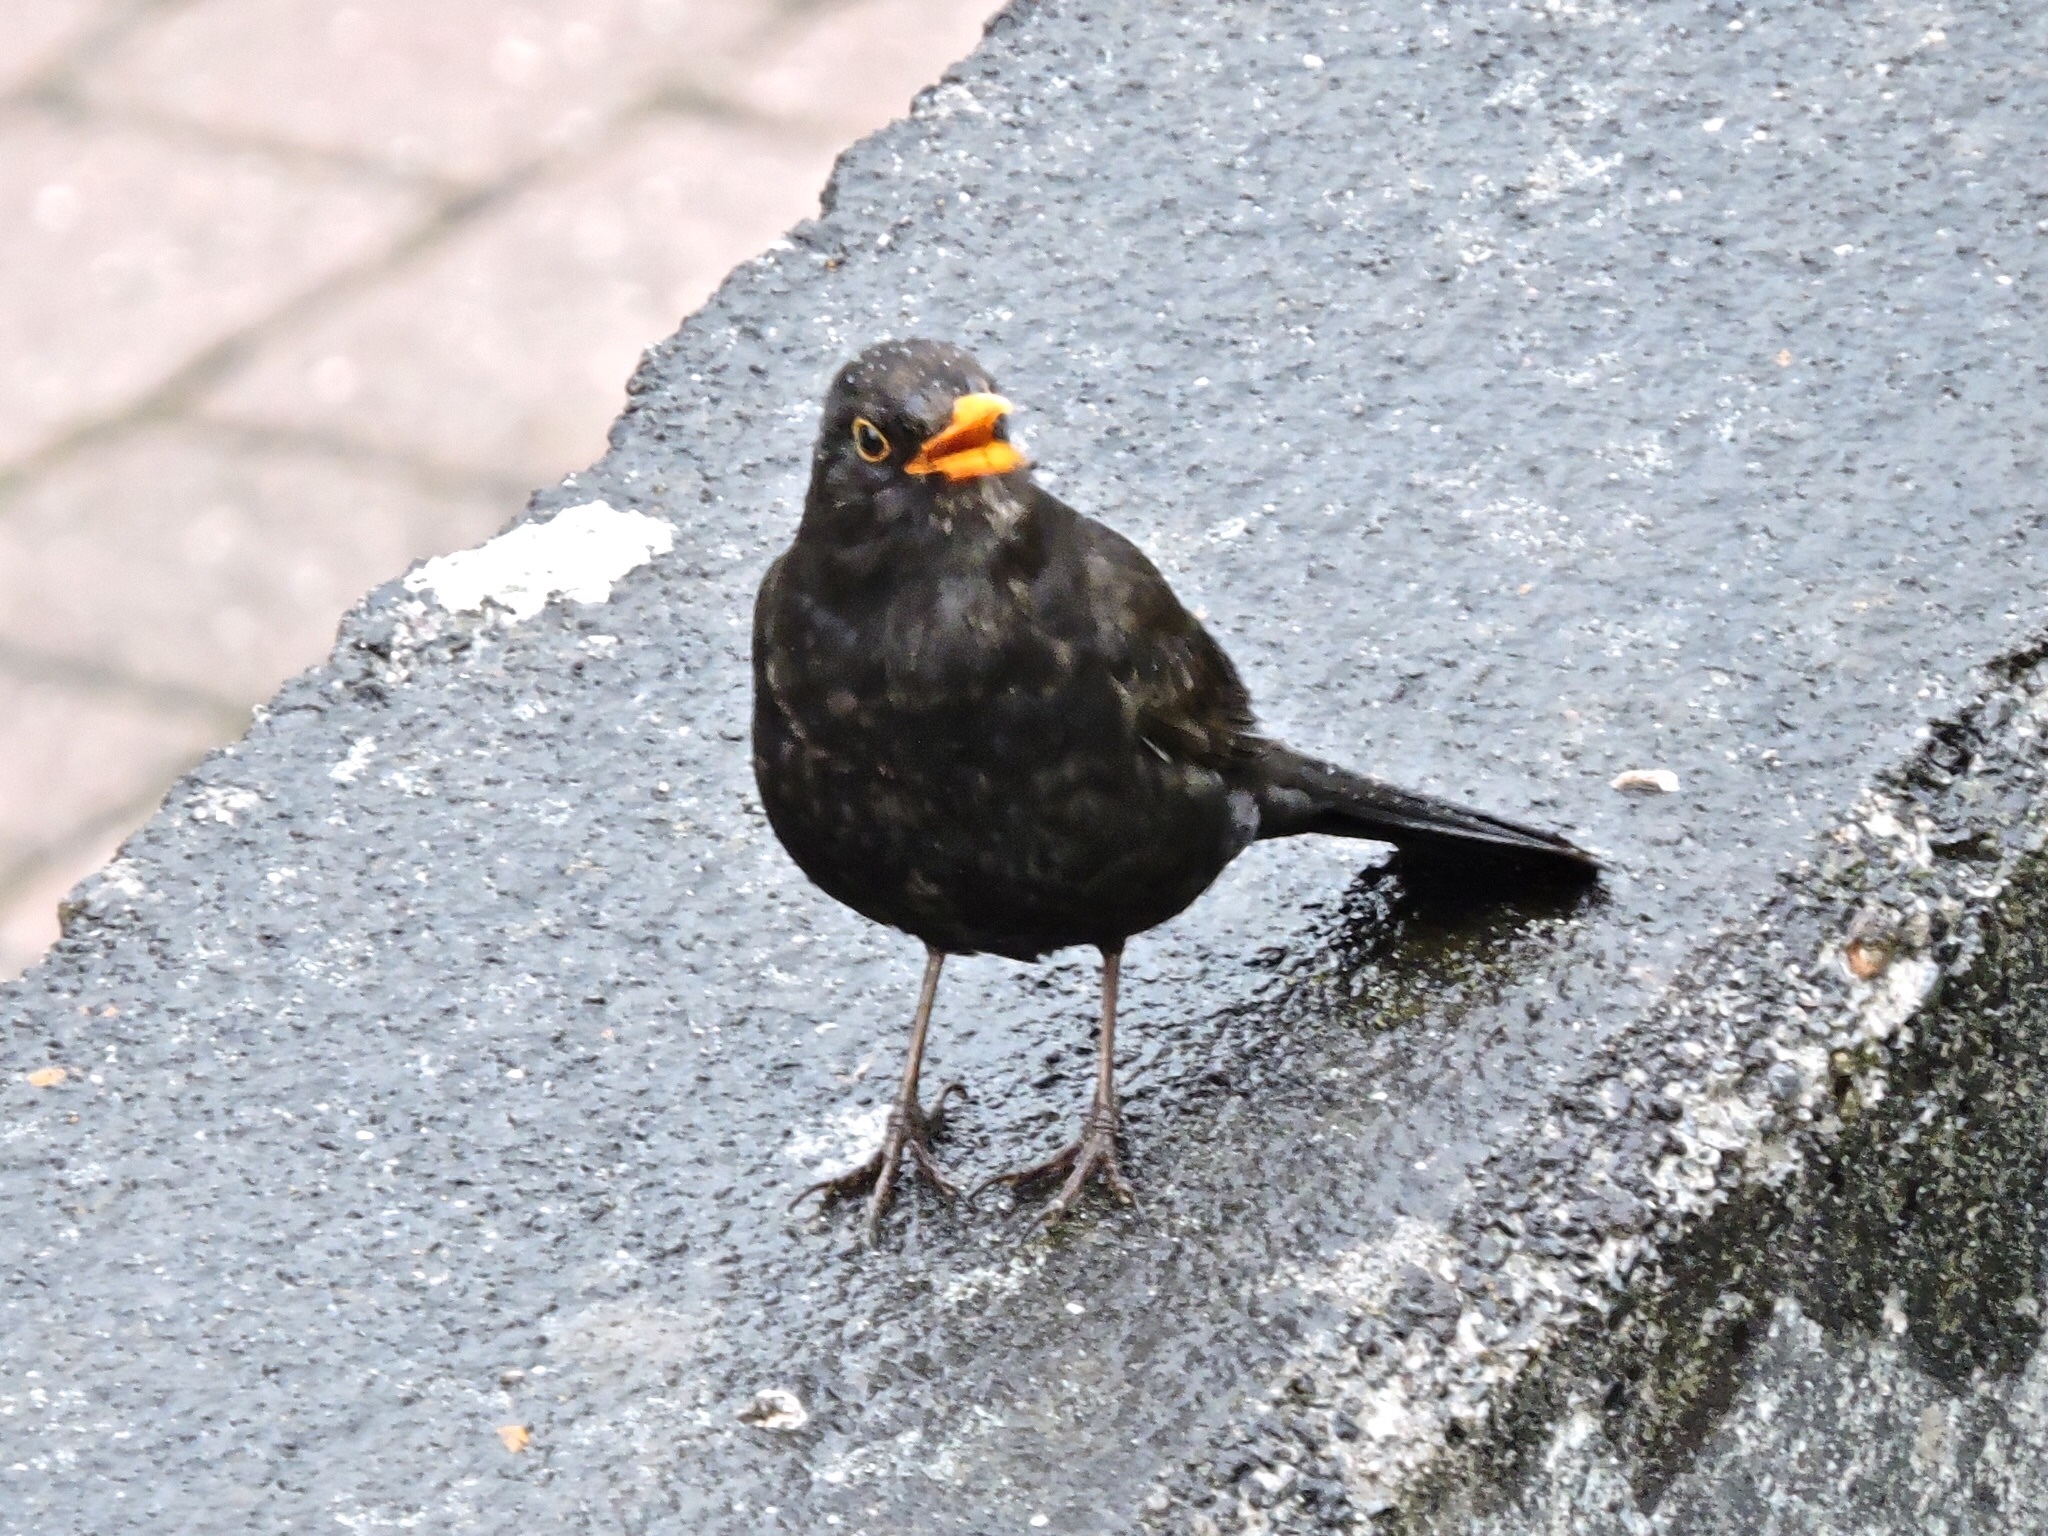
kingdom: Animalia
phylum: Chordata
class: Aves
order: Passeriformes
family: Turdidae
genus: Turdus
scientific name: Turdus merula
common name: Common blackbird
